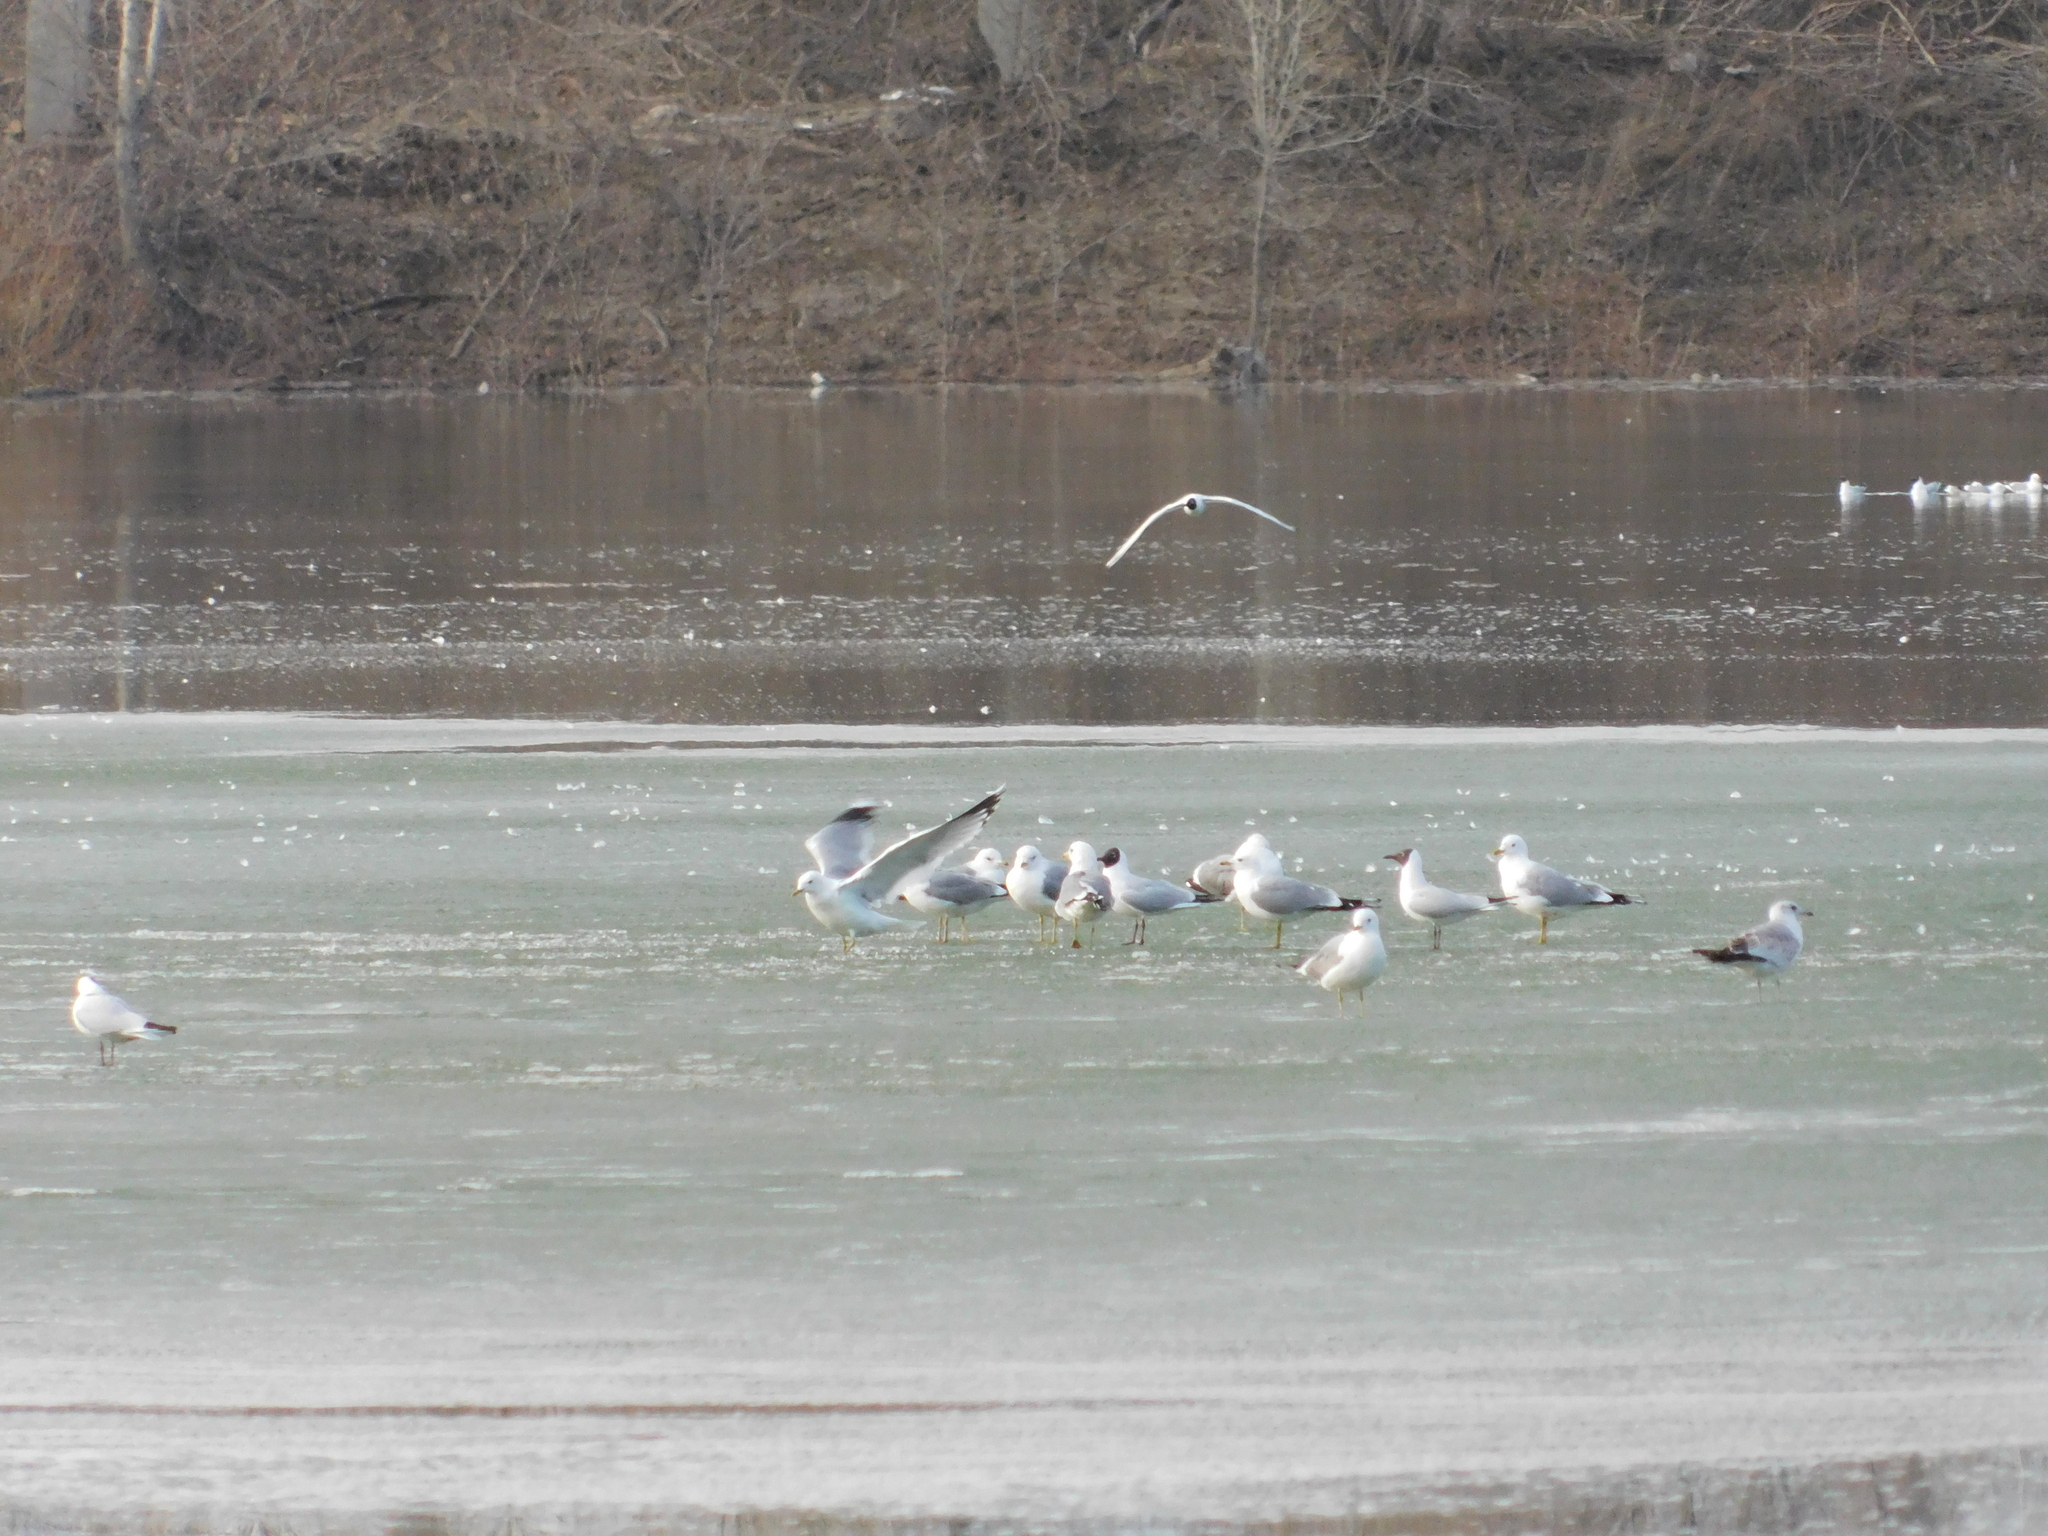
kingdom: Animalia
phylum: Chordata
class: Aves
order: Charadriiformes
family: Laridae
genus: Larus
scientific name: Larus cachinnans
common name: Caspian gull
